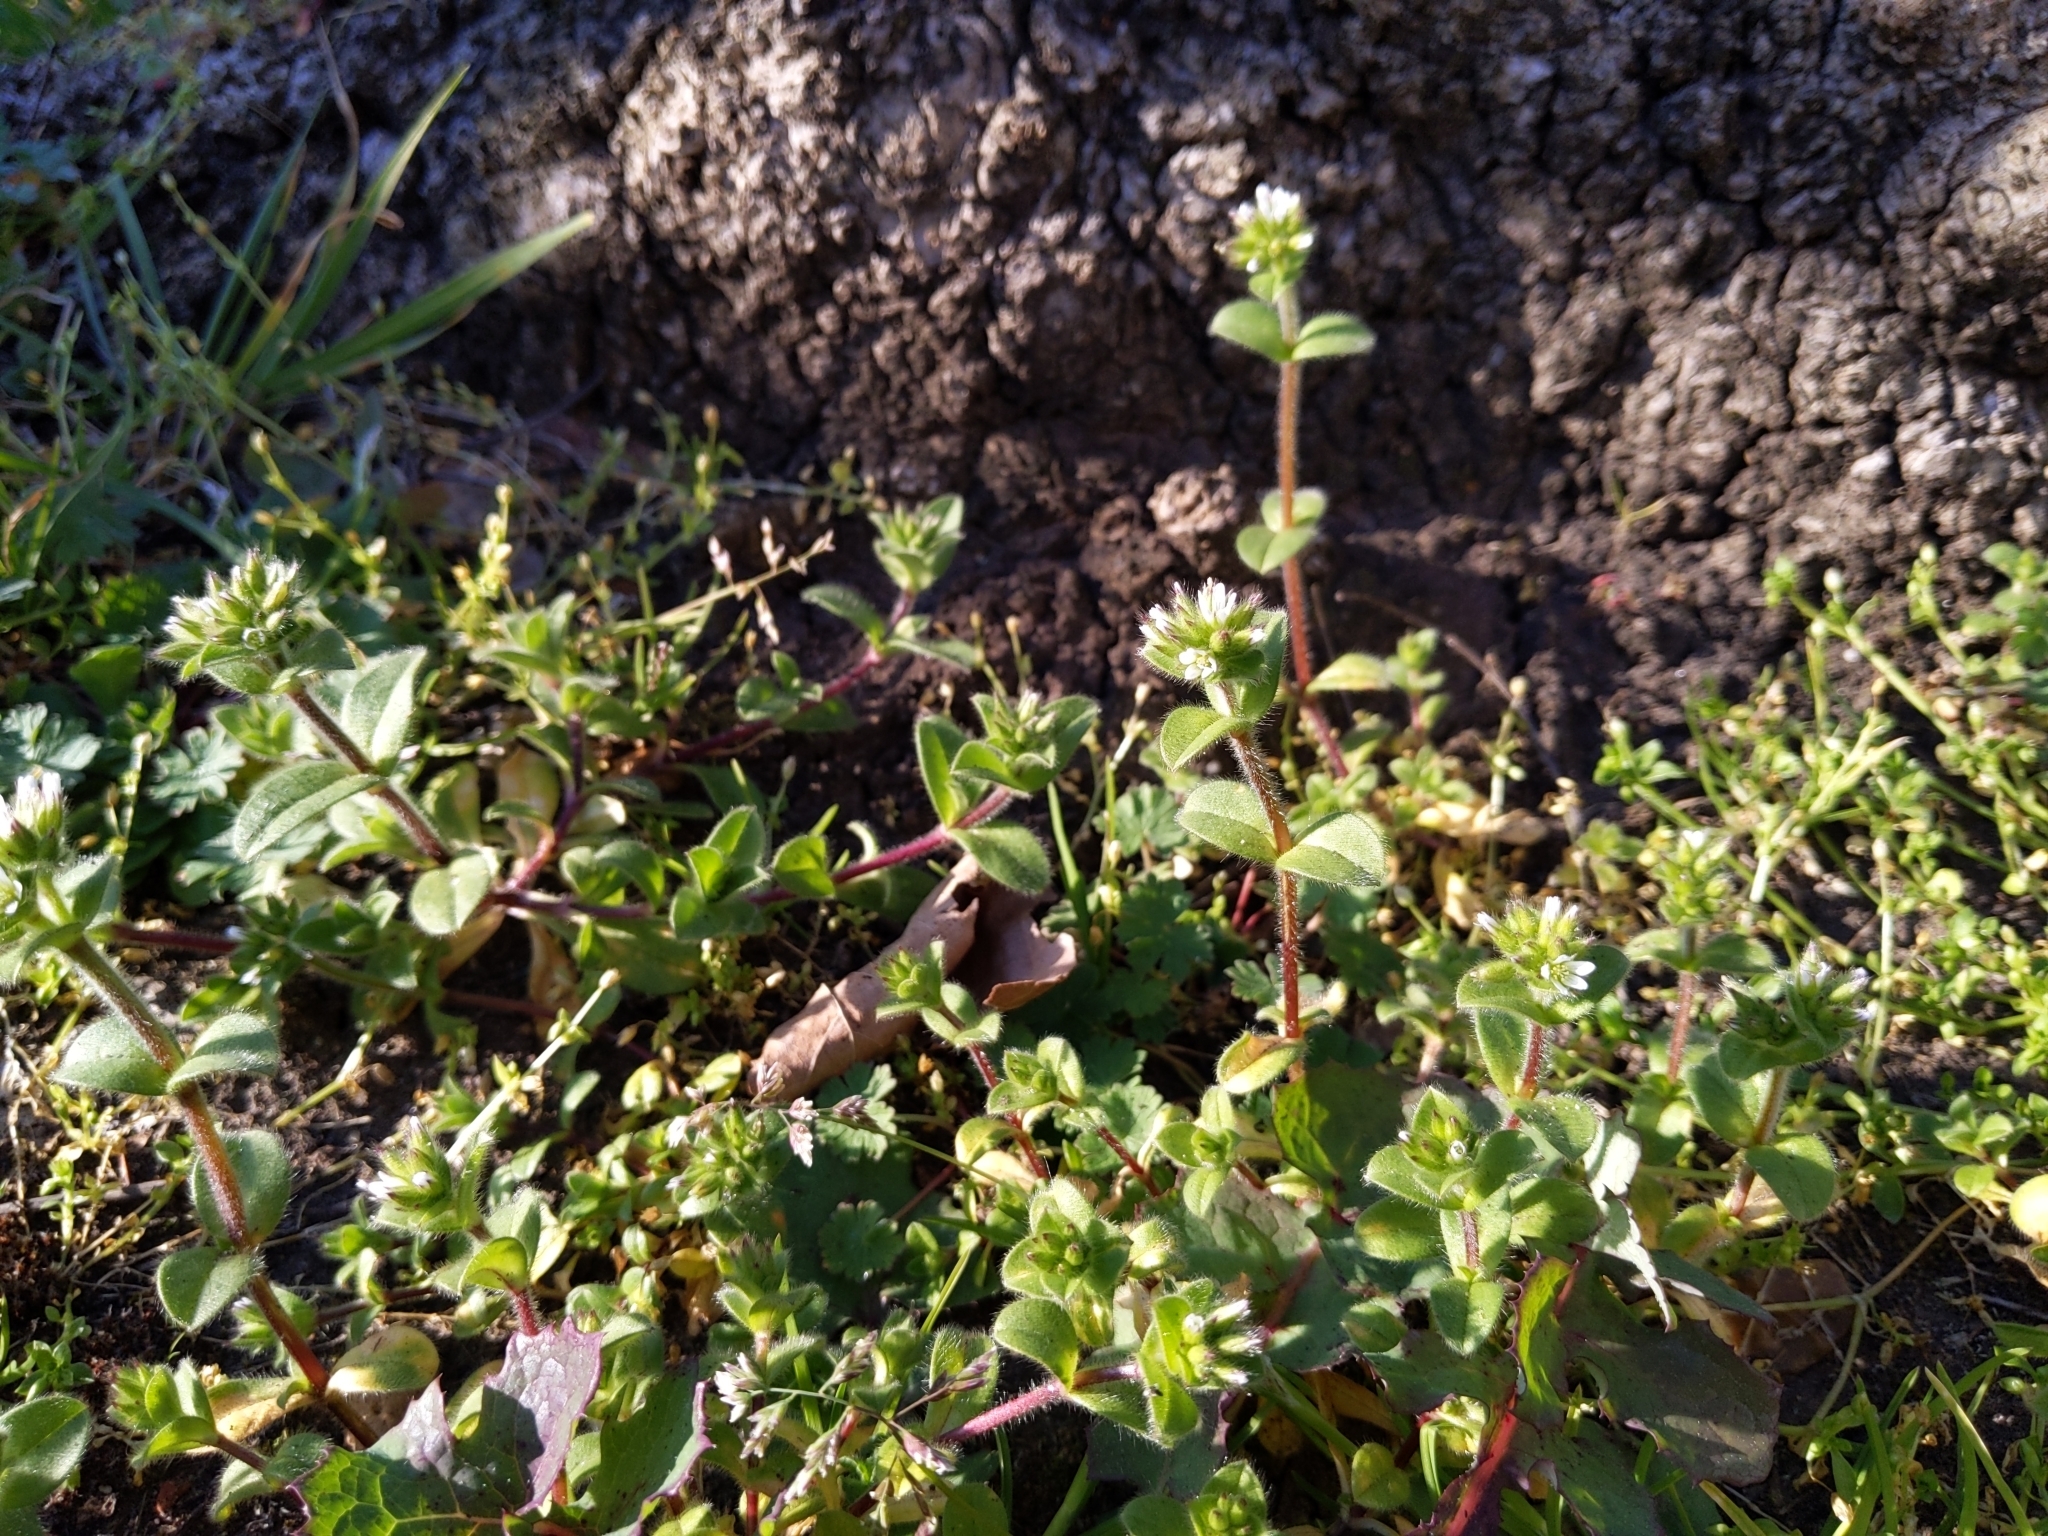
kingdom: Plantae
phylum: Tracheophyta
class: Magnoliopsida
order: Caryophyllales
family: Caryophyllaceae
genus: Cerastium
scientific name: Cerastium glomeratum
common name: Sticky chickweed
